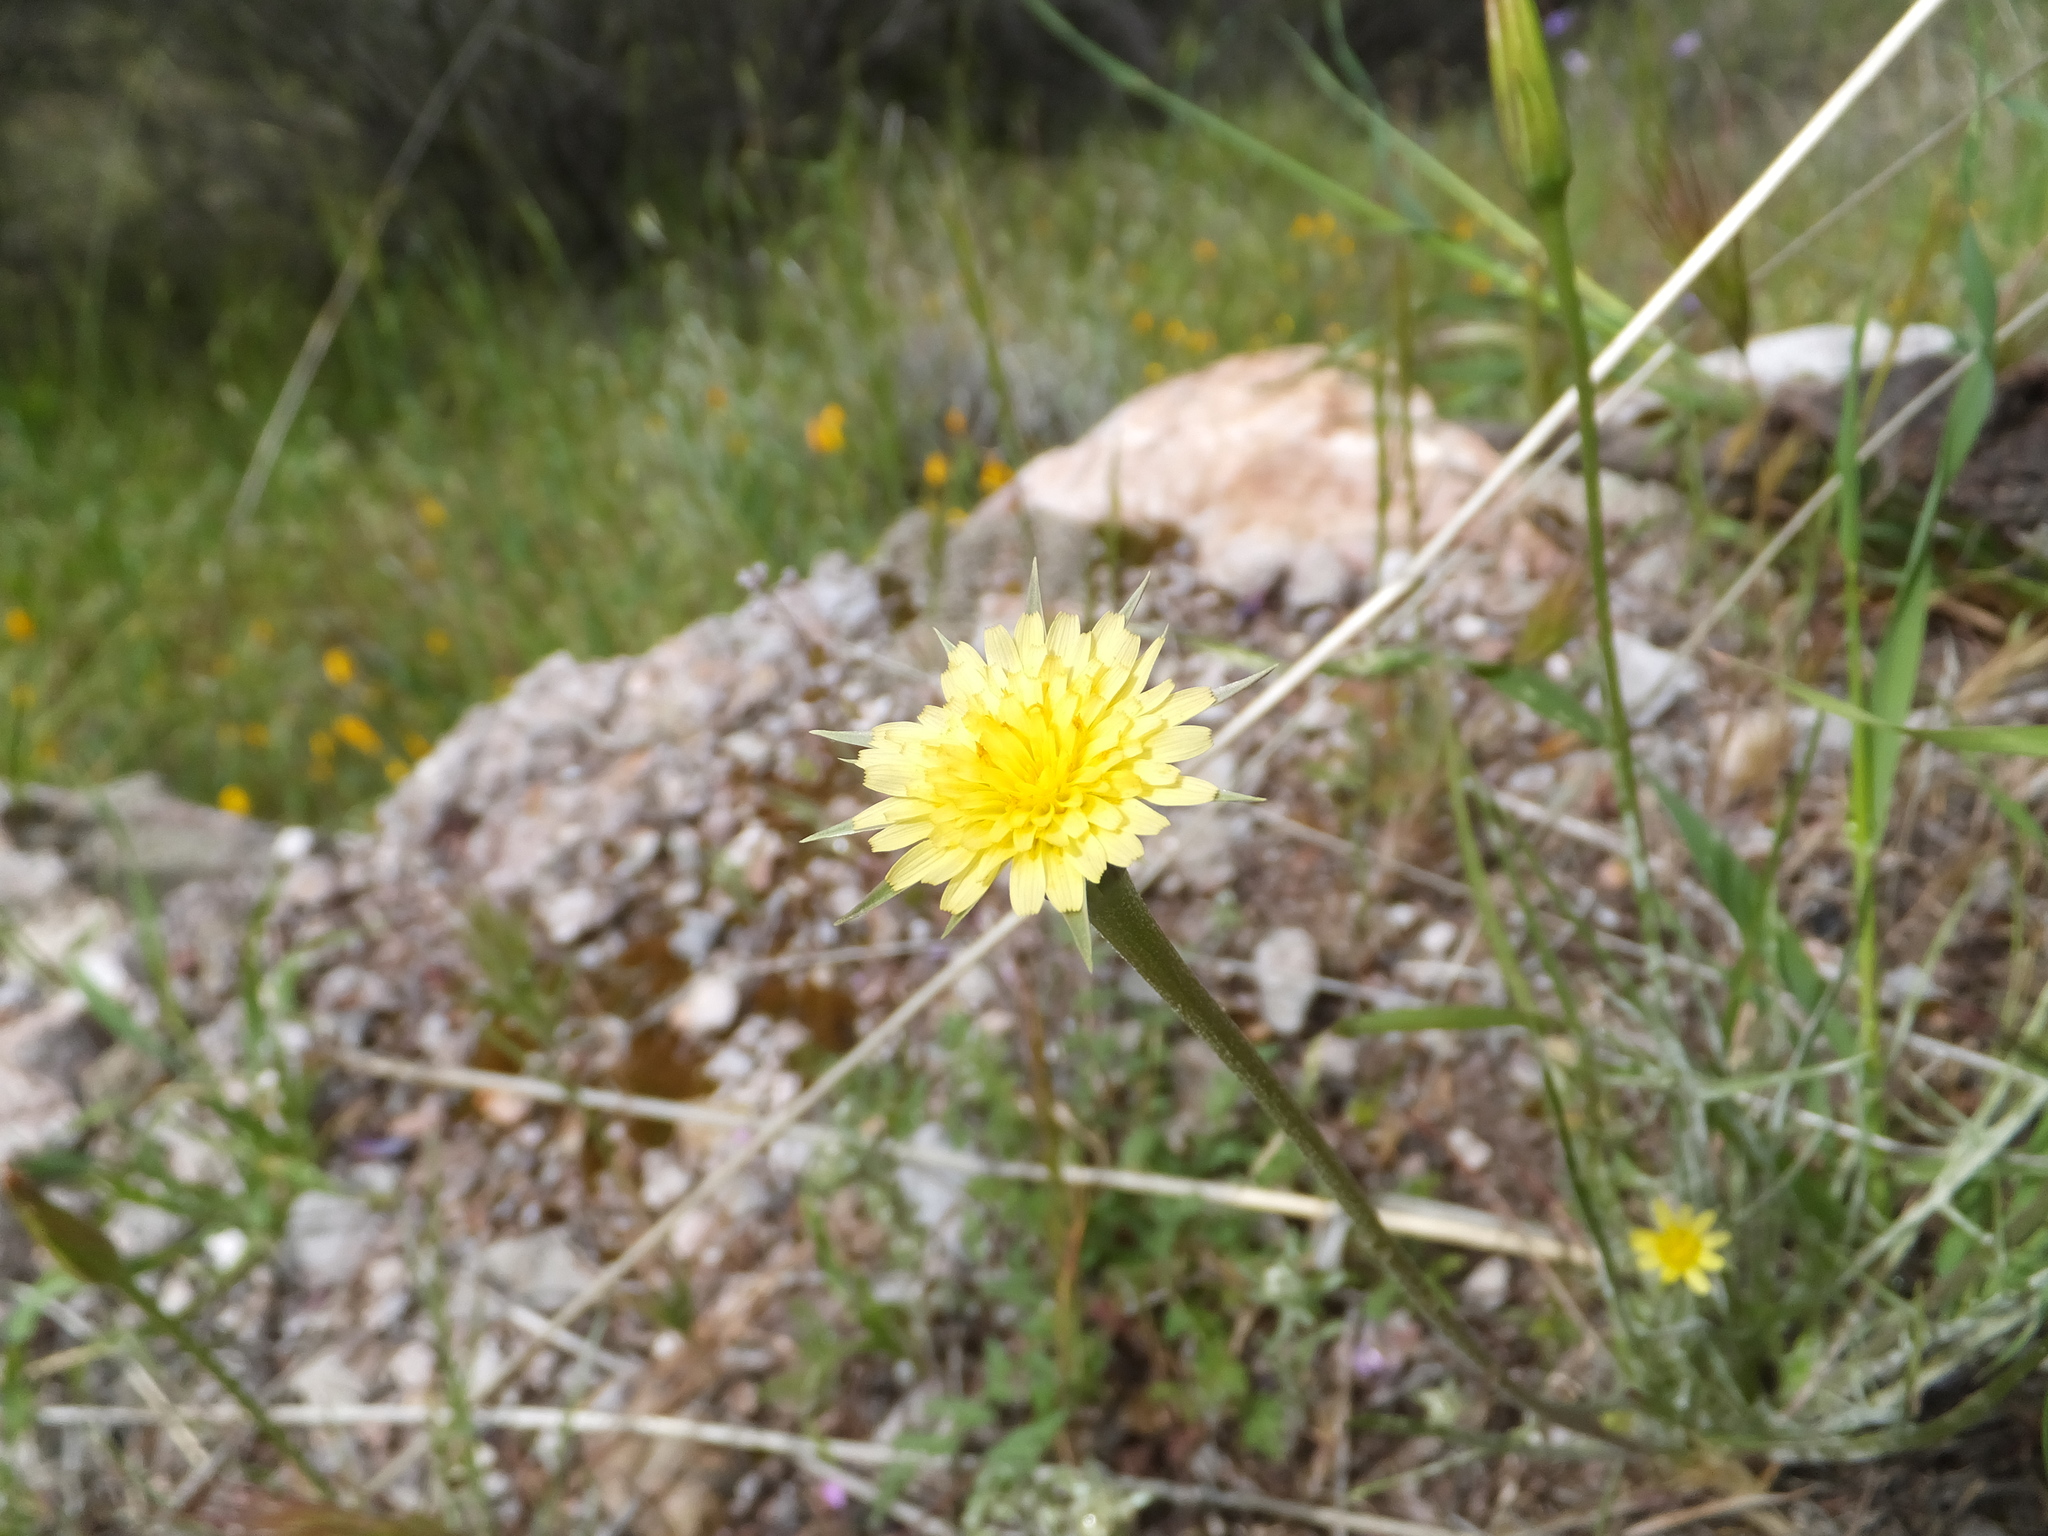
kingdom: Plantae
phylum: Tracheophyta
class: Magnoliopsida
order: Asterales
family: Asteraceae
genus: Microseris
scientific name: Microseris lindleyi
